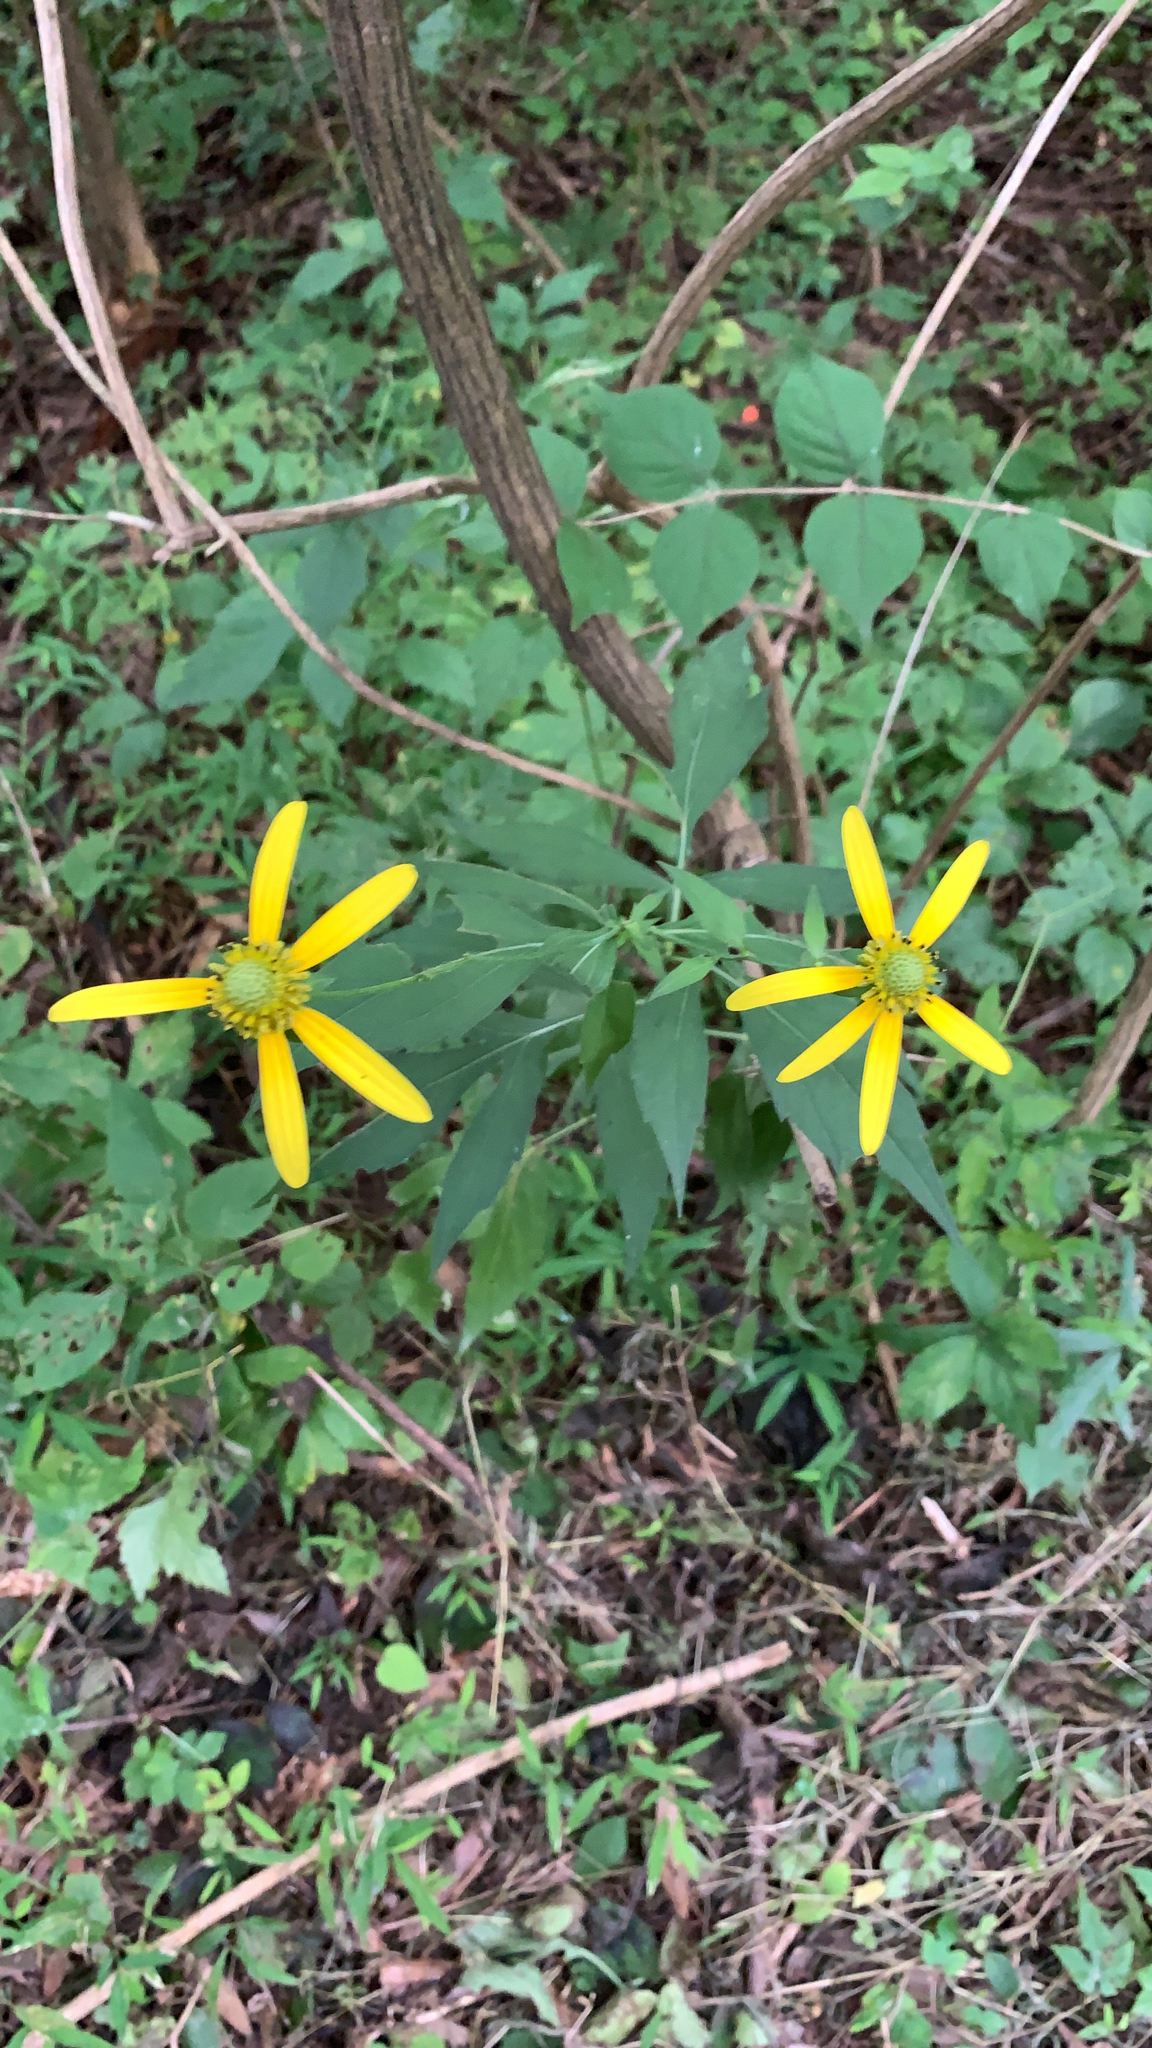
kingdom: Plantae
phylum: Tracheophyta
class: Magnoliopsida
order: Asterales
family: Asteraceae
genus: Rudbeckia
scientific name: Rudbeckia laciniata
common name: Coneflower
